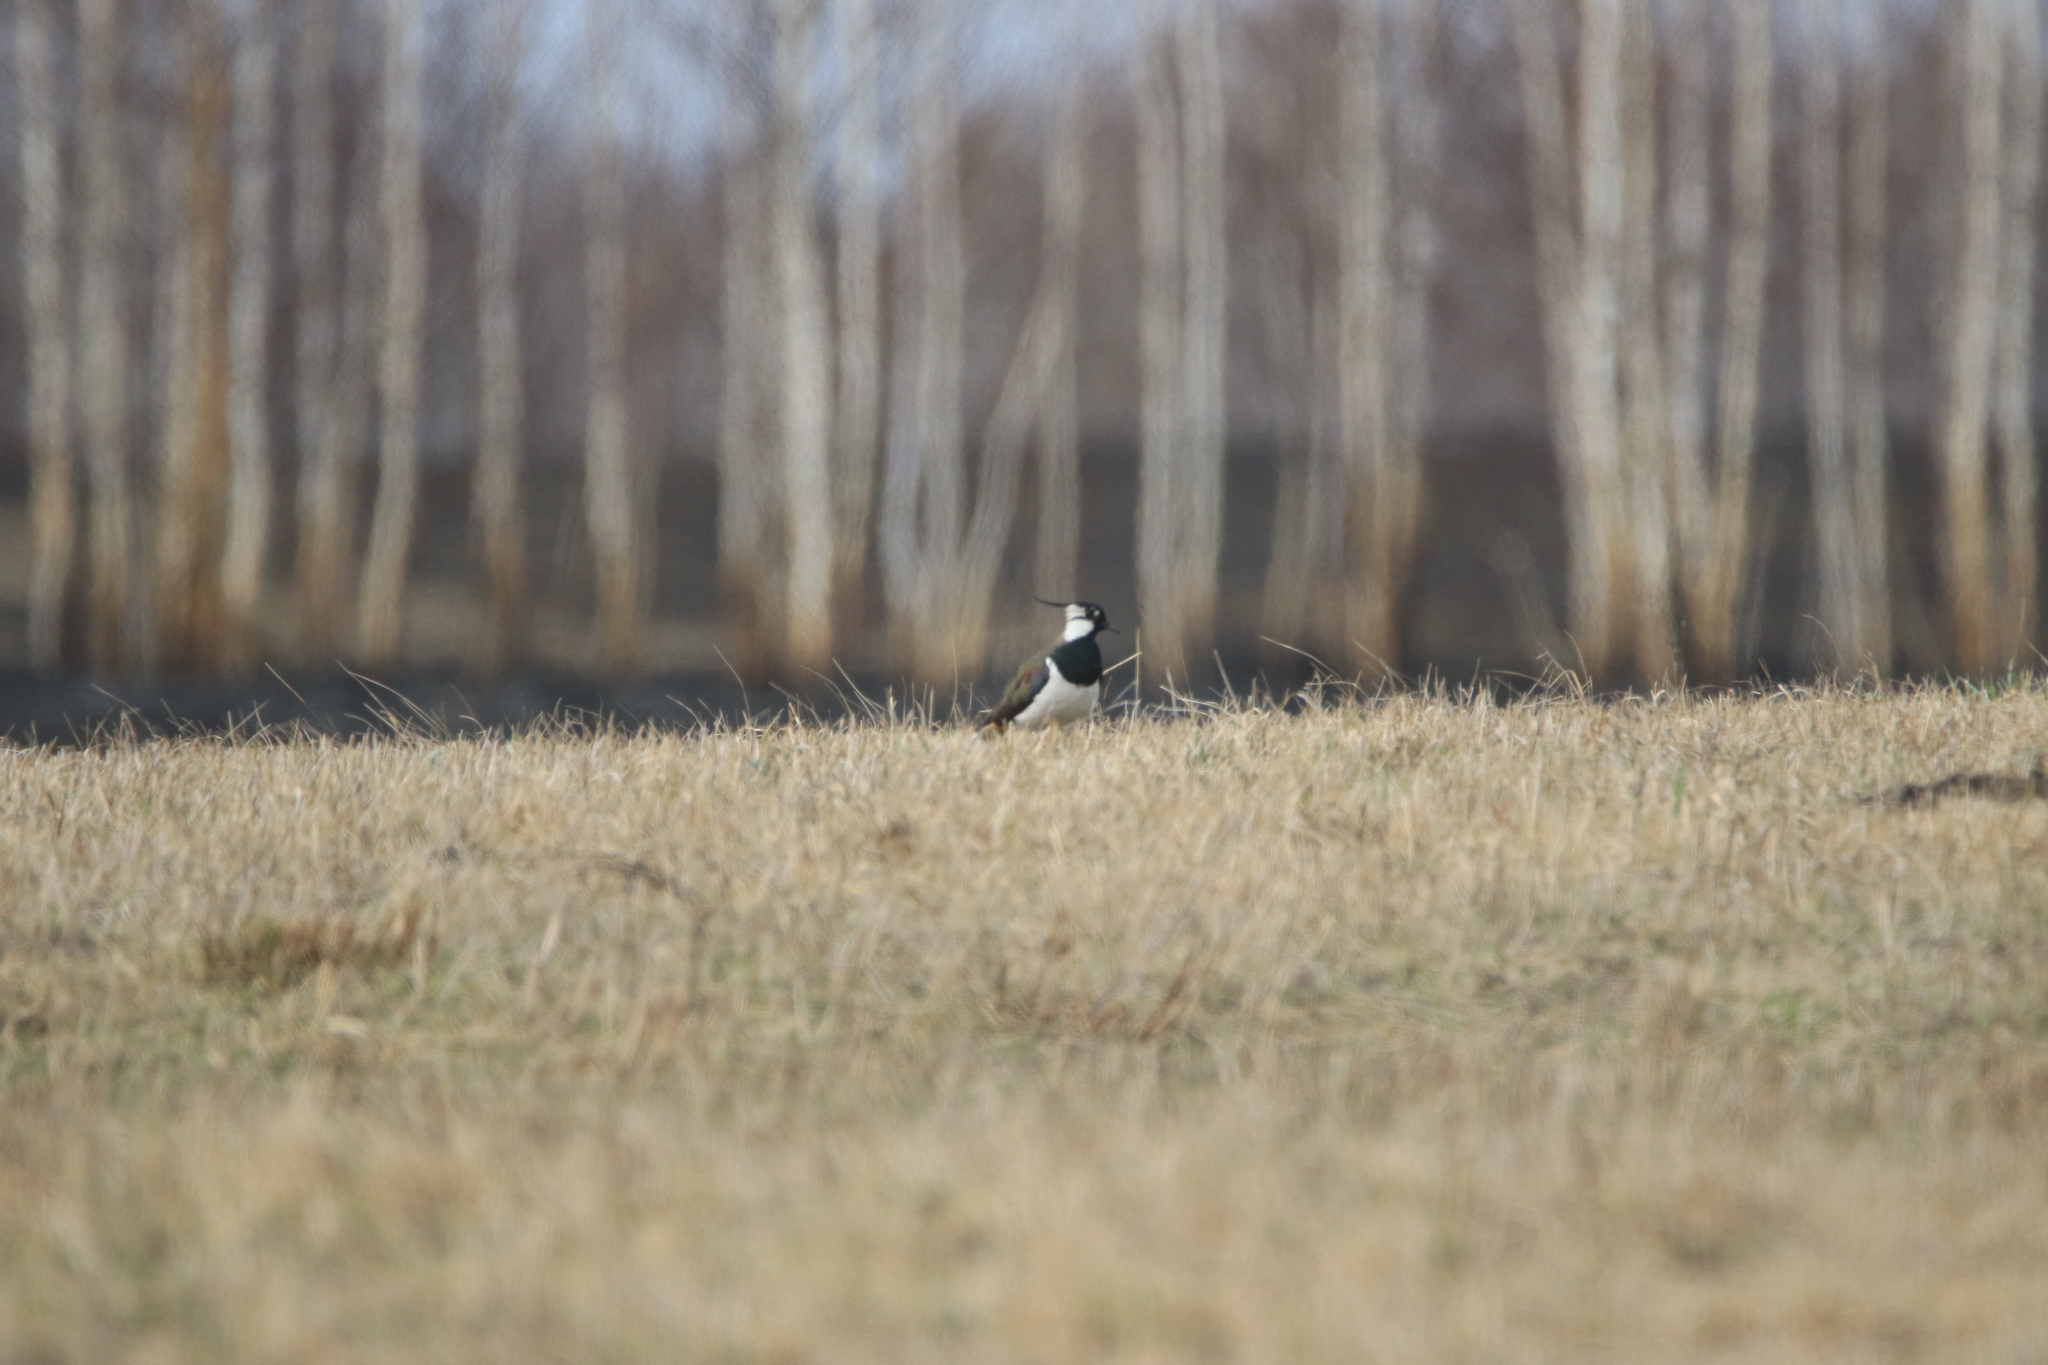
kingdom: Animalia
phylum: Chordata
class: Aves
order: Charadriiformes
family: Charadriidae
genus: Vanellus
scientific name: Vanellus vanellus
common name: Northern lapwing
